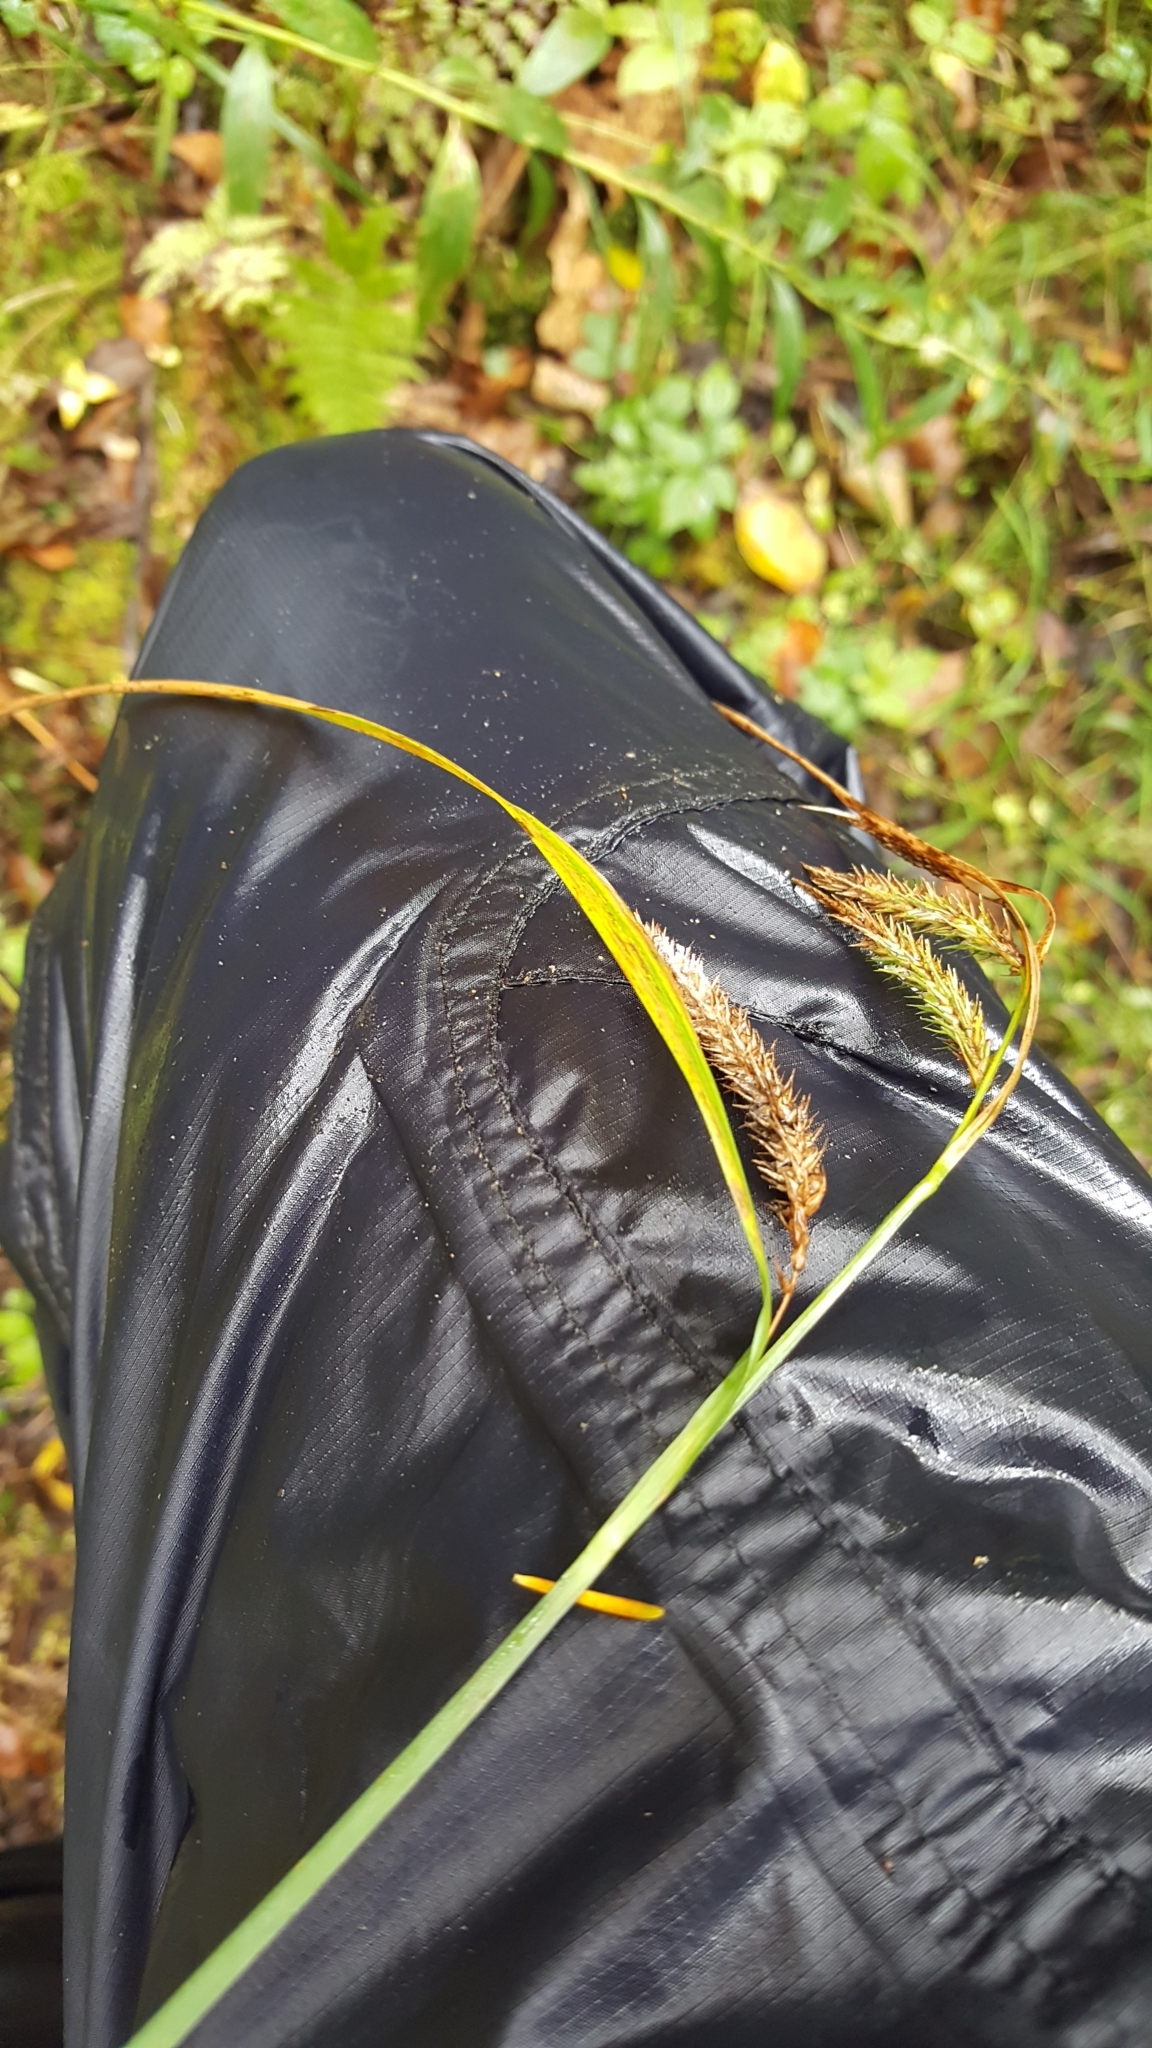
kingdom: Plantae
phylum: Tracheophyta
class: Liliopsida
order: Poales
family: Cyperaceae
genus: Carex
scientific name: Carex gynandra
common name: Nodding sedge
